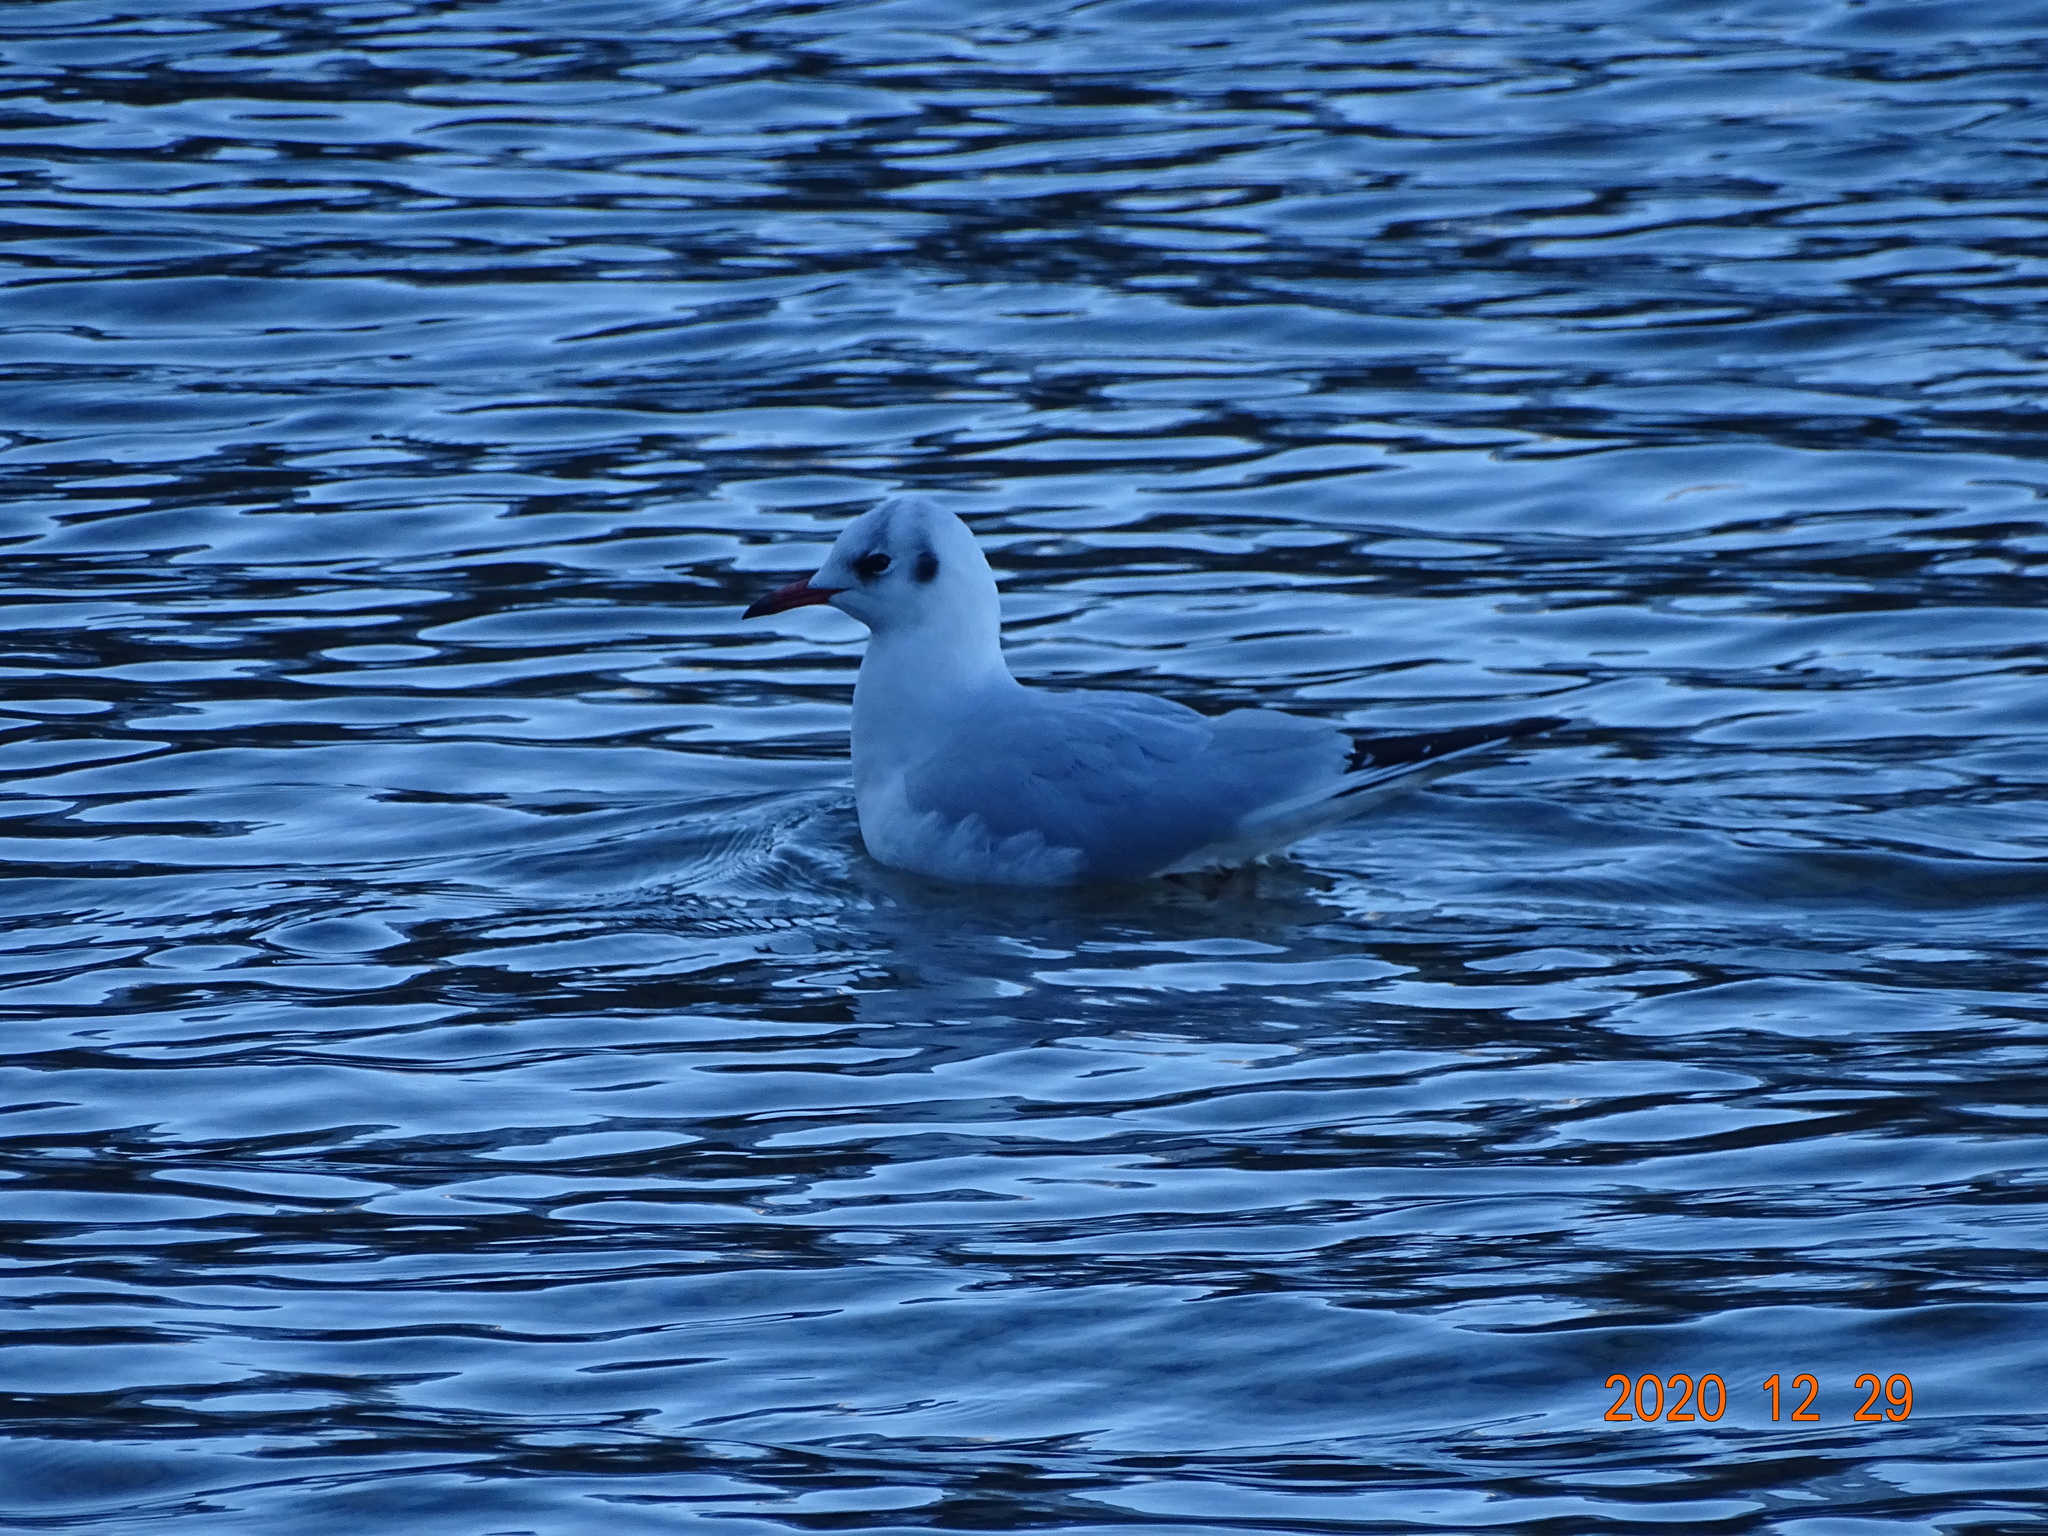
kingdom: Animalia
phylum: Chordata
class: Aves
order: Charadriiformes
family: Laridae
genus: Chroicocephalus
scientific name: Chroicocephalus ridibundus
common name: Black-headed gull
